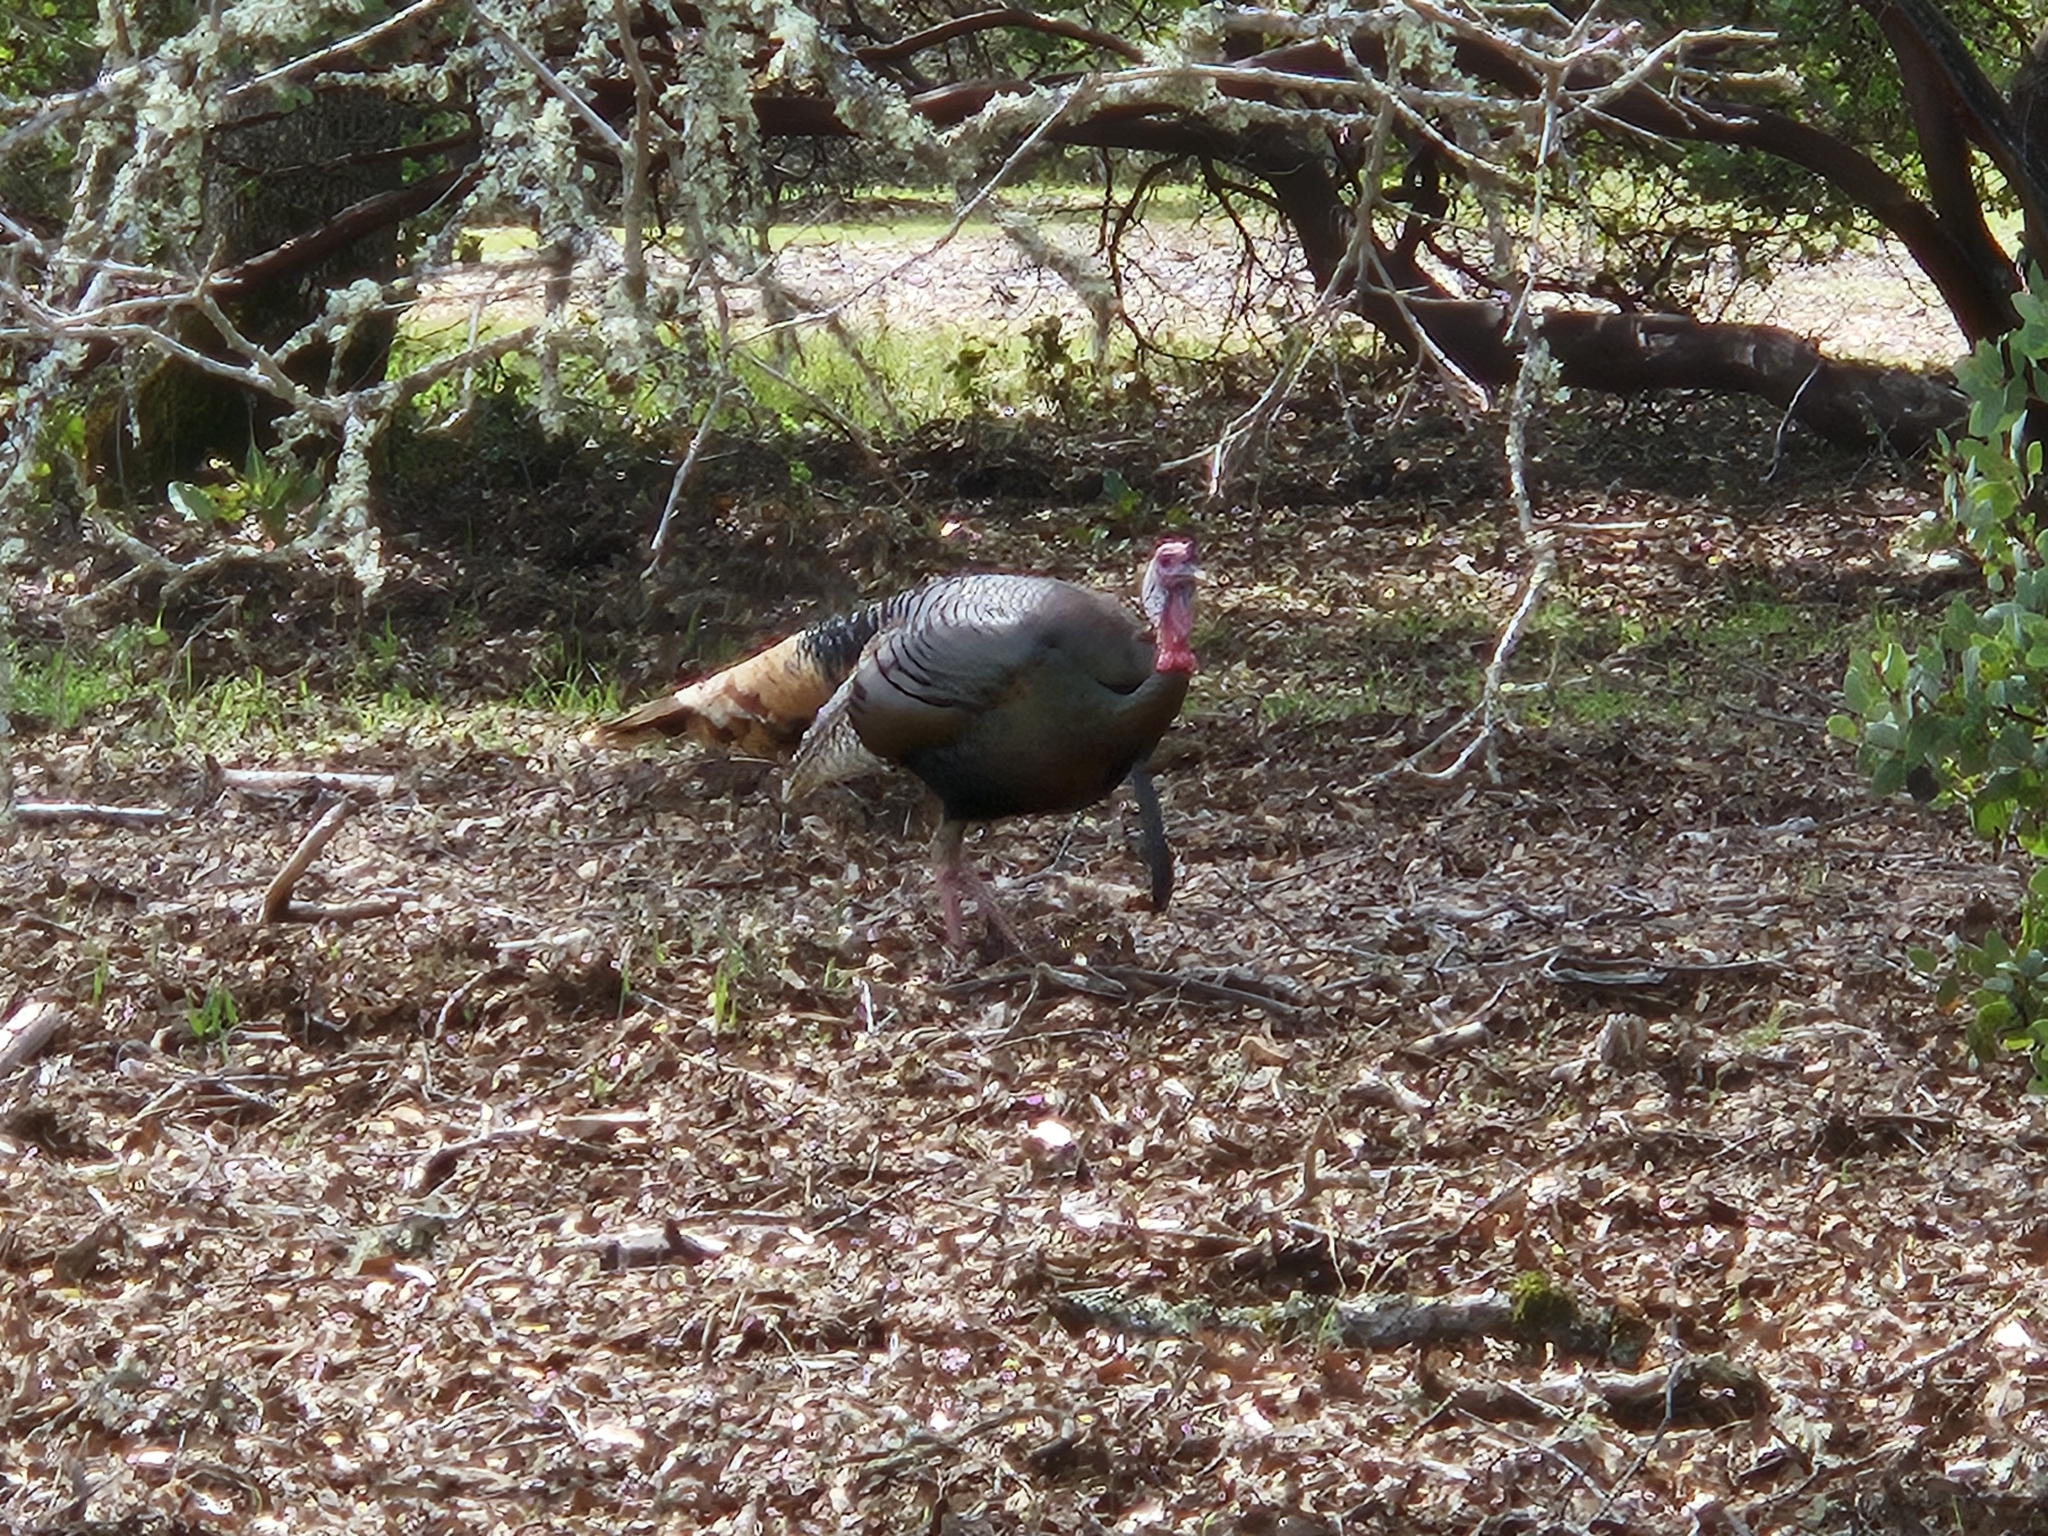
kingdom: Animalia
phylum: Chordata
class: Aves
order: Galliformes
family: Phasianidae
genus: Meleagris
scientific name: Meleagris gallopavo
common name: Wild turkey
